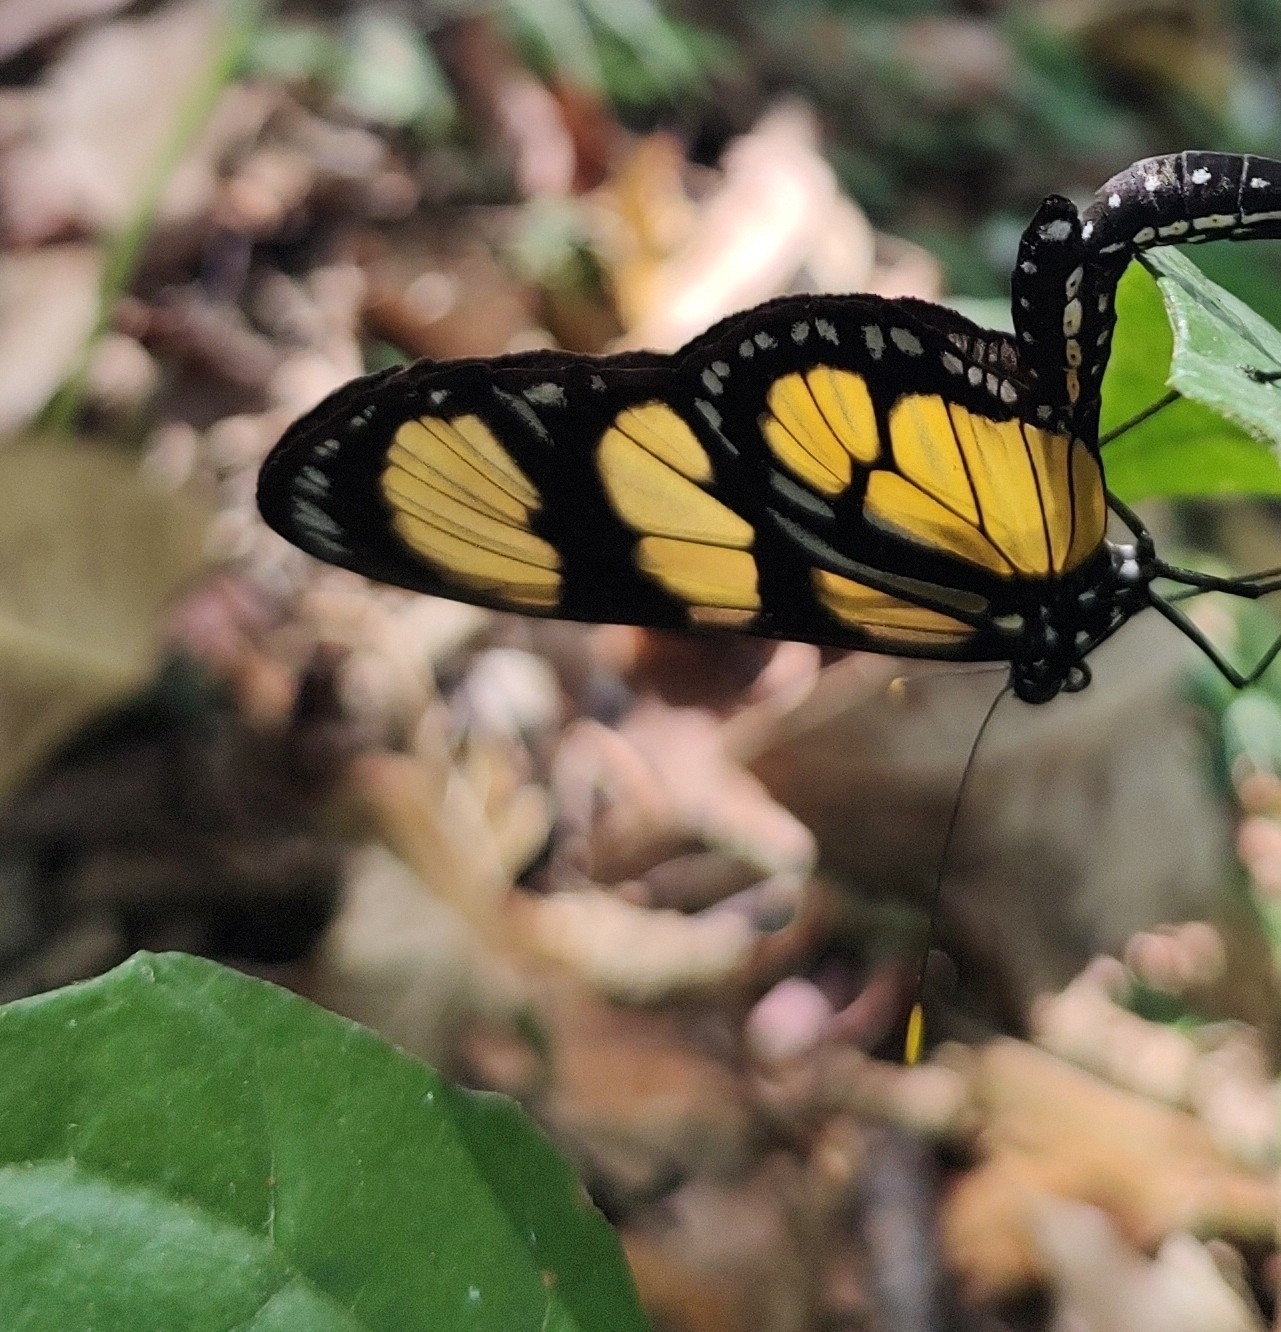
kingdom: Animalia
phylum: Arthropoda
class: Insecta
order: Lepidoptera
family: Nymphalidae
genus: Methona
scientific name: Methona themisto
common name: Themisto amberwing
